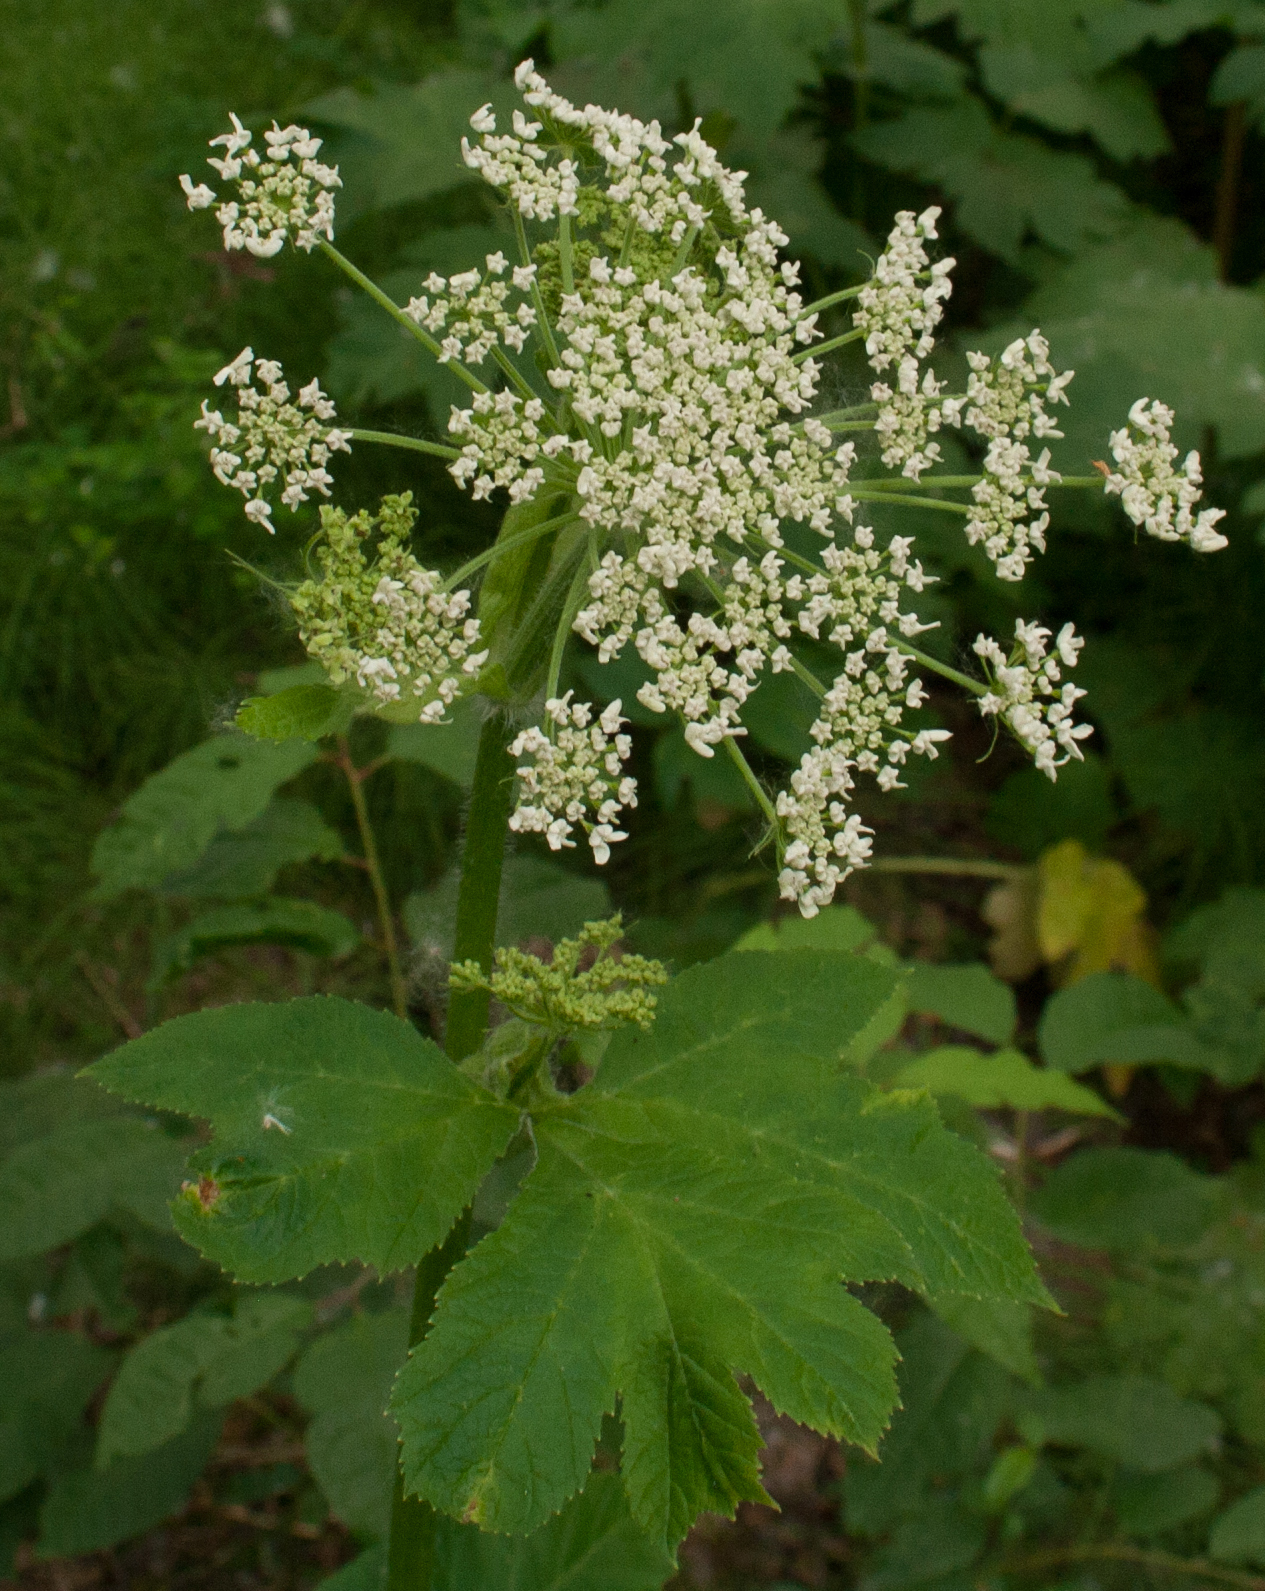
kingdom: Plantae
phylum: Tracheophyta
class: Magnoliopsida
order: Apiales
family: Apiaceae
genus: Heracleum
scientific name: Heracleum maximum
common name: American cow parsnip
